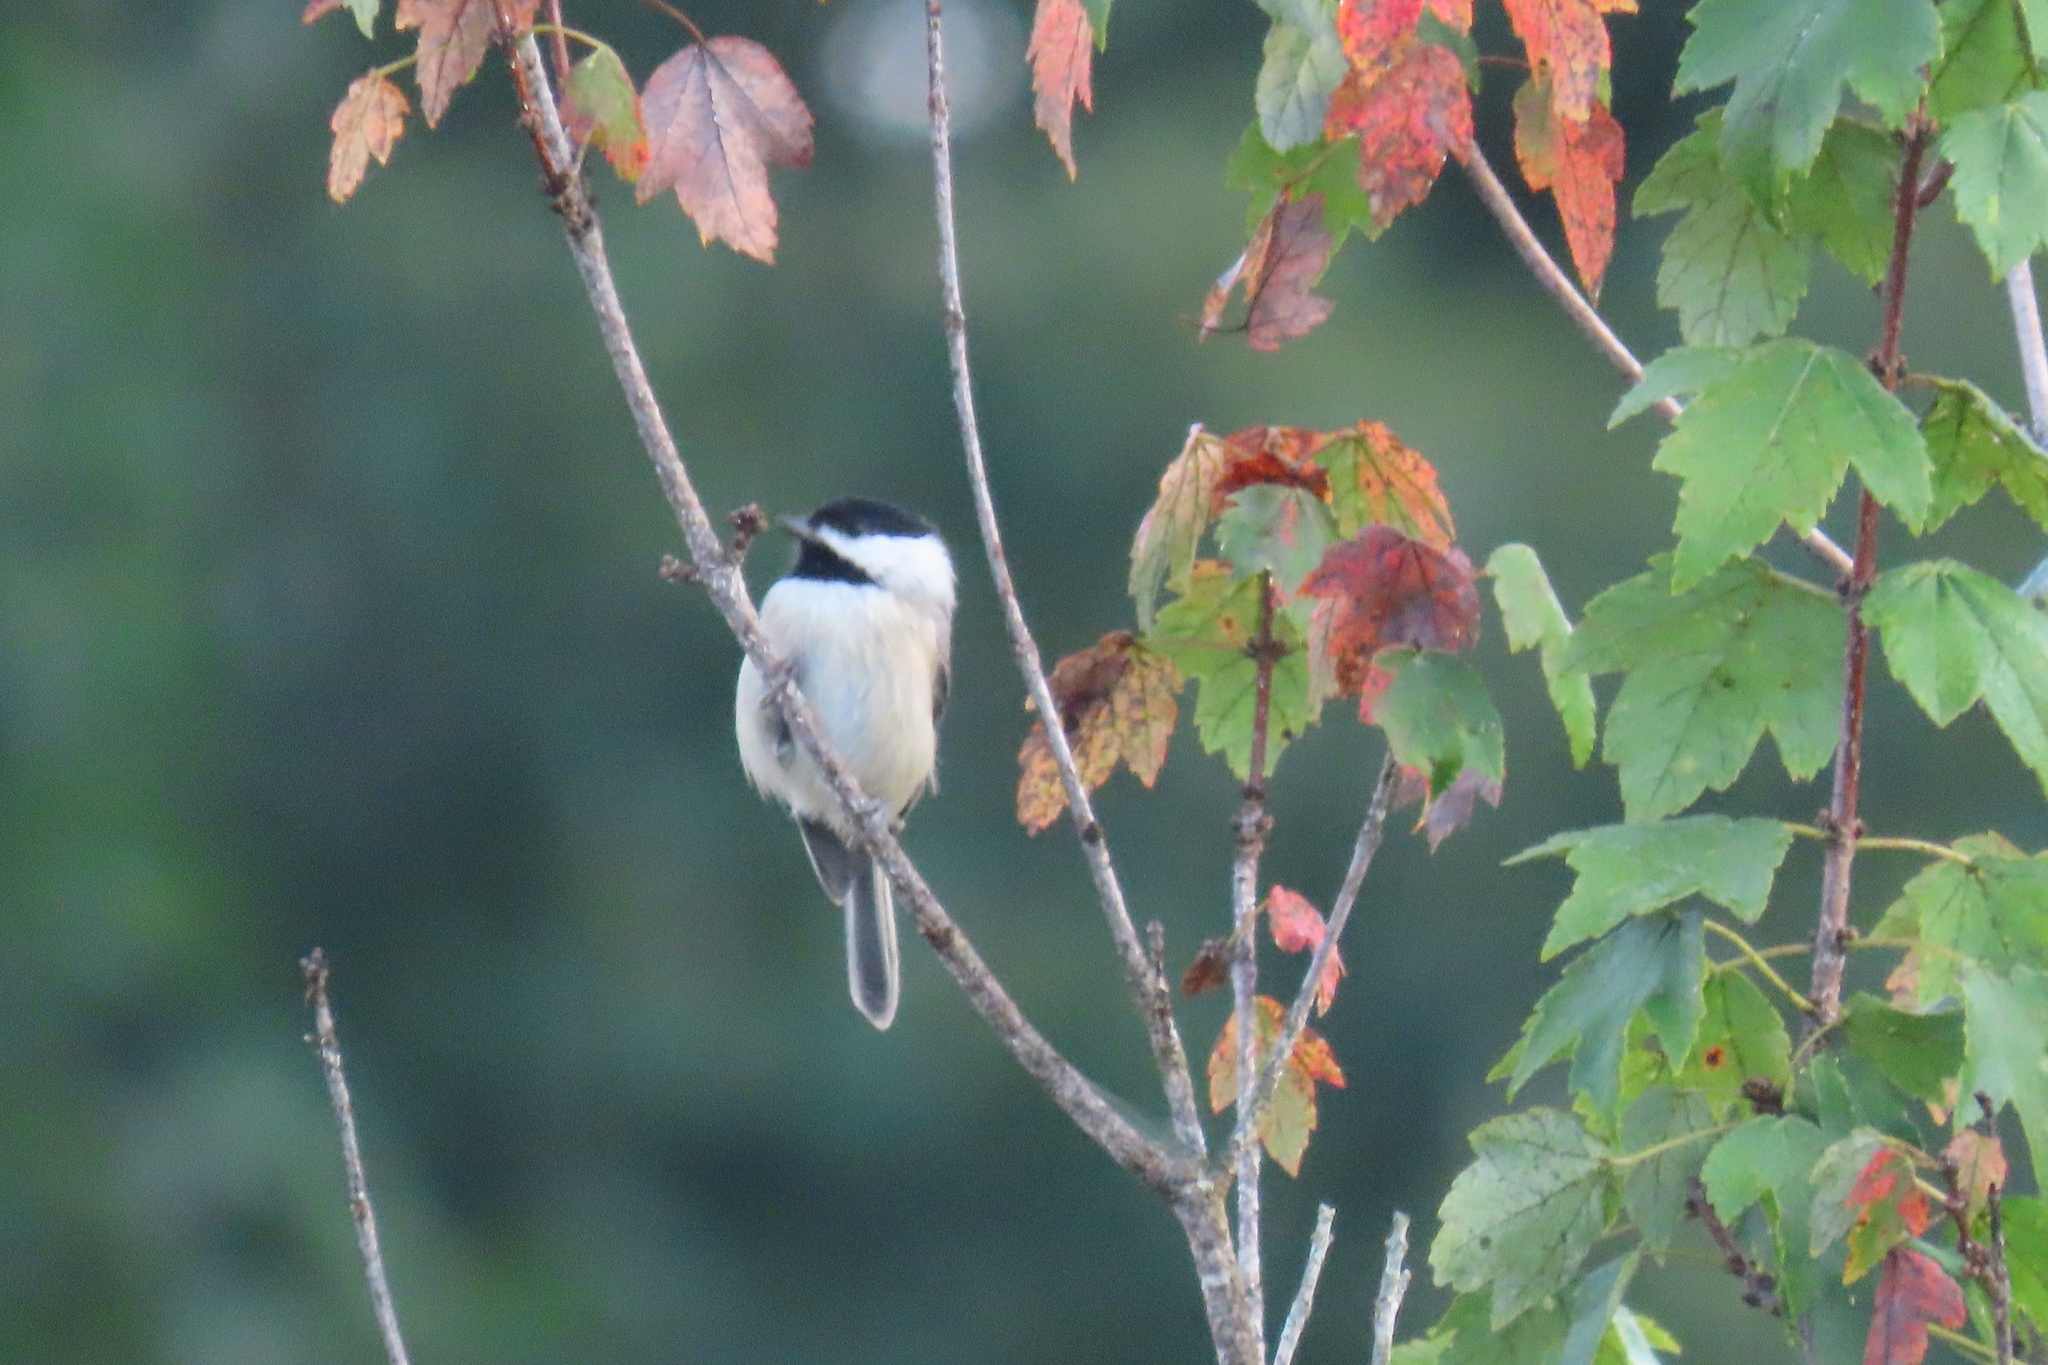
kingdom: Animalia
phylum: Chordata
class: Aves
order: Passeriformes
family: Paridae
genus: Poecile
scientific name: Poecile carolinensis
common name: Carolina chickadee
